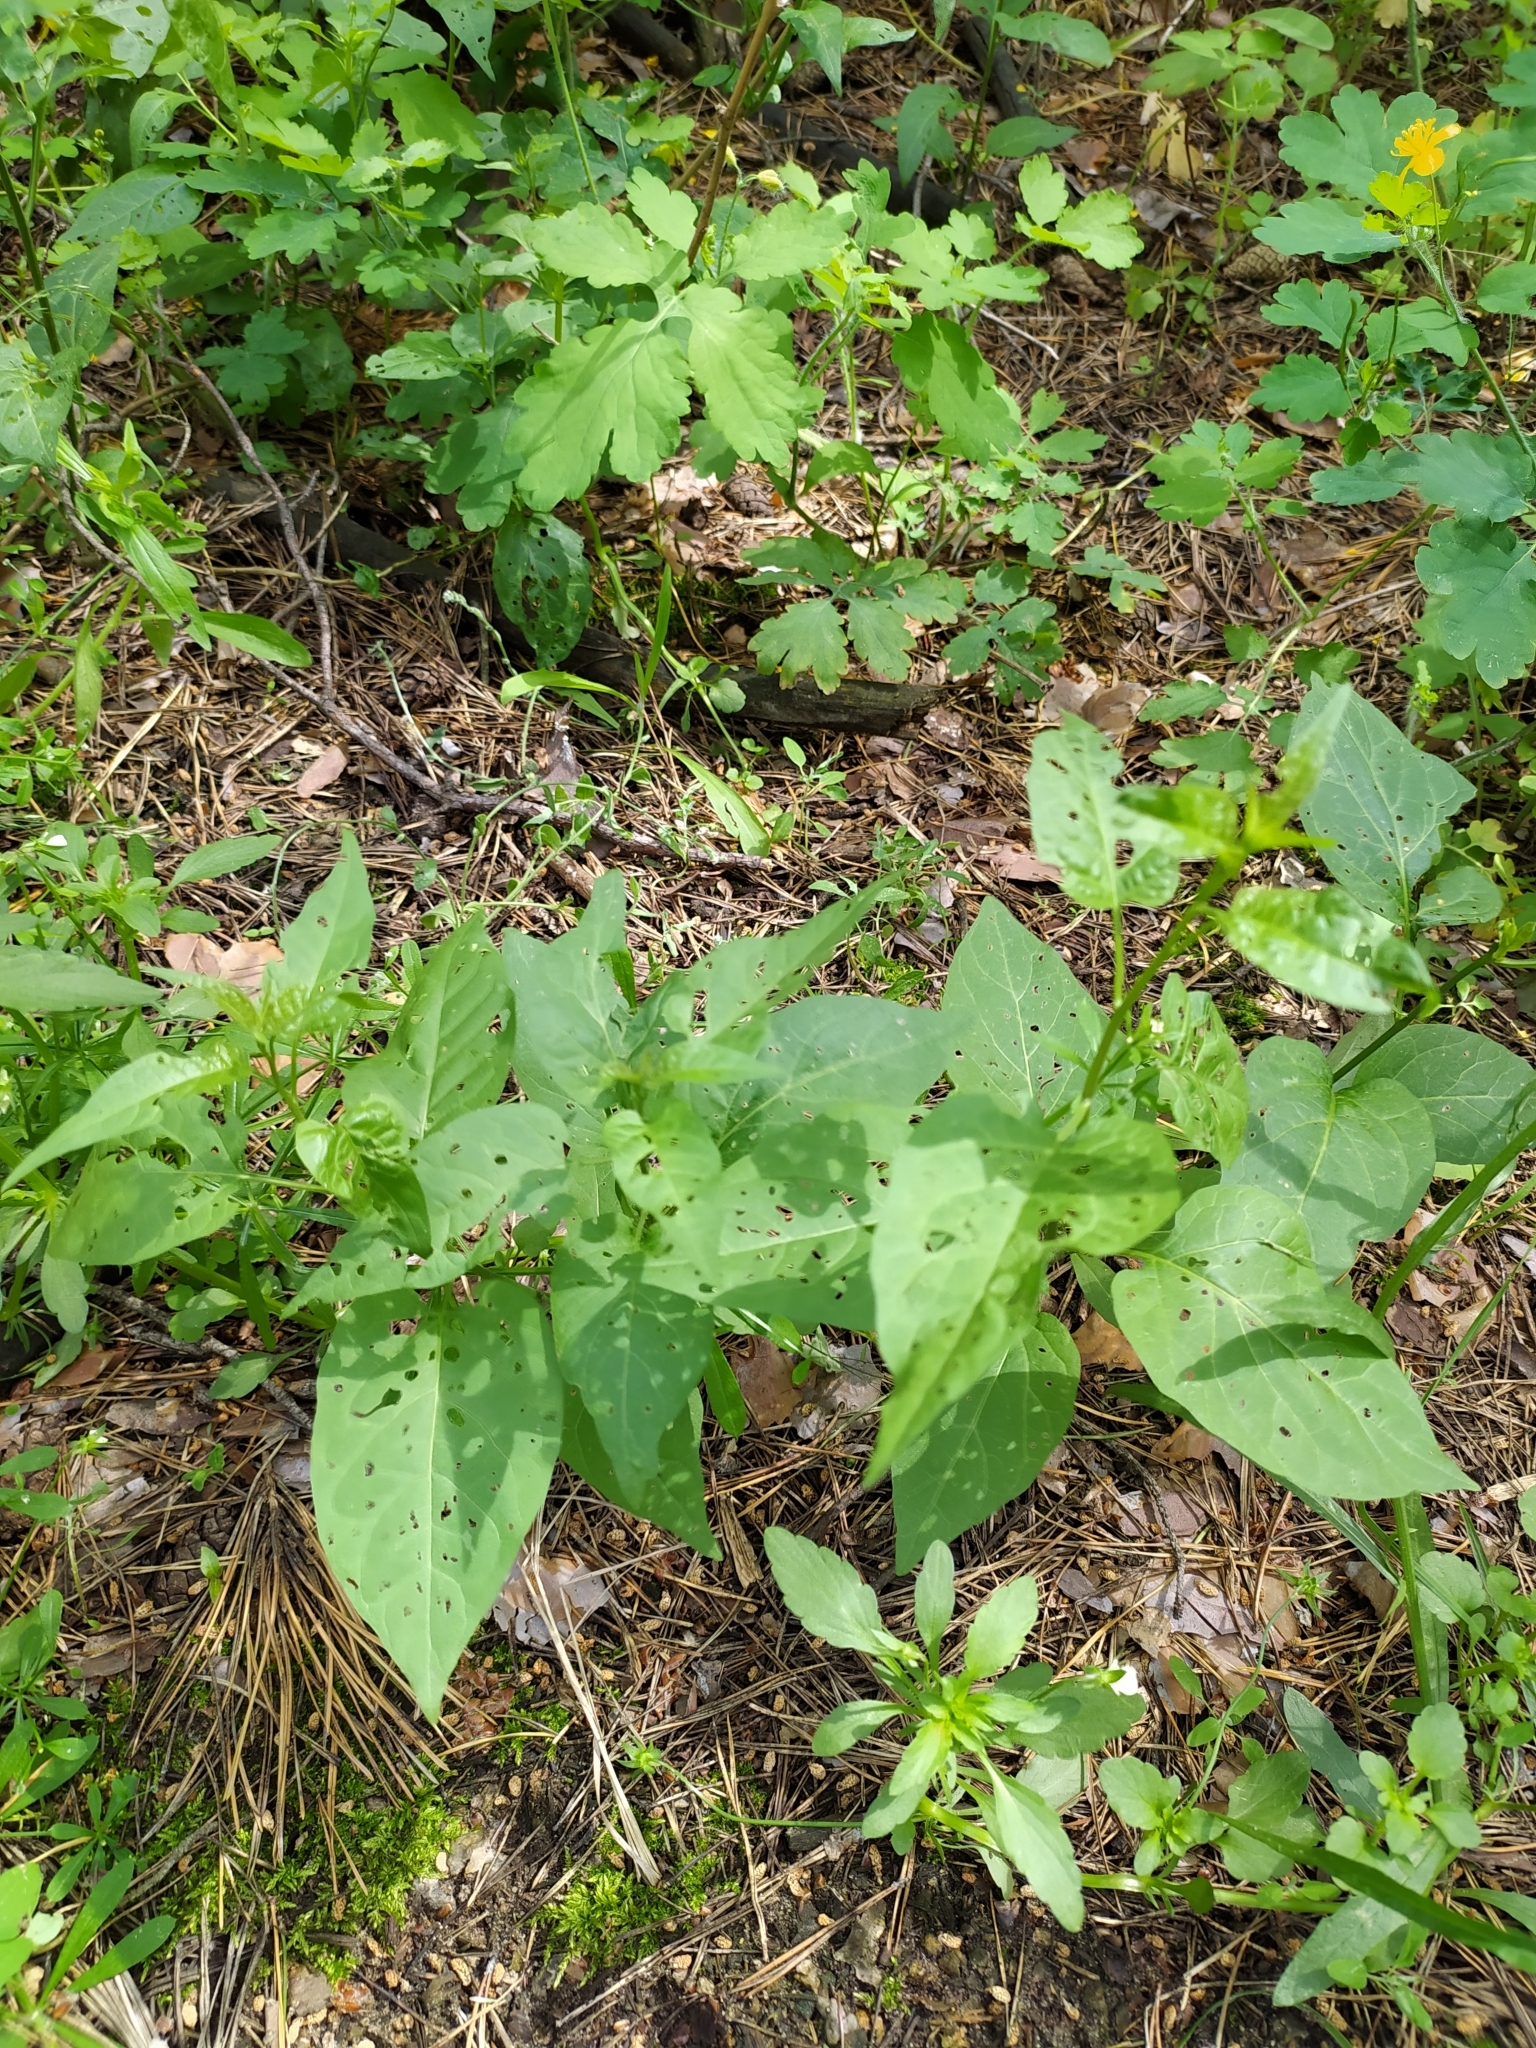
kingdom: Plantae
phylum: Tracheophyta
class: Magnoliopsida
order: Solanales
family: Solanaceae
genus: Solanum
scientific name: Solanum dulcamara
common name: Climbing nightshade
